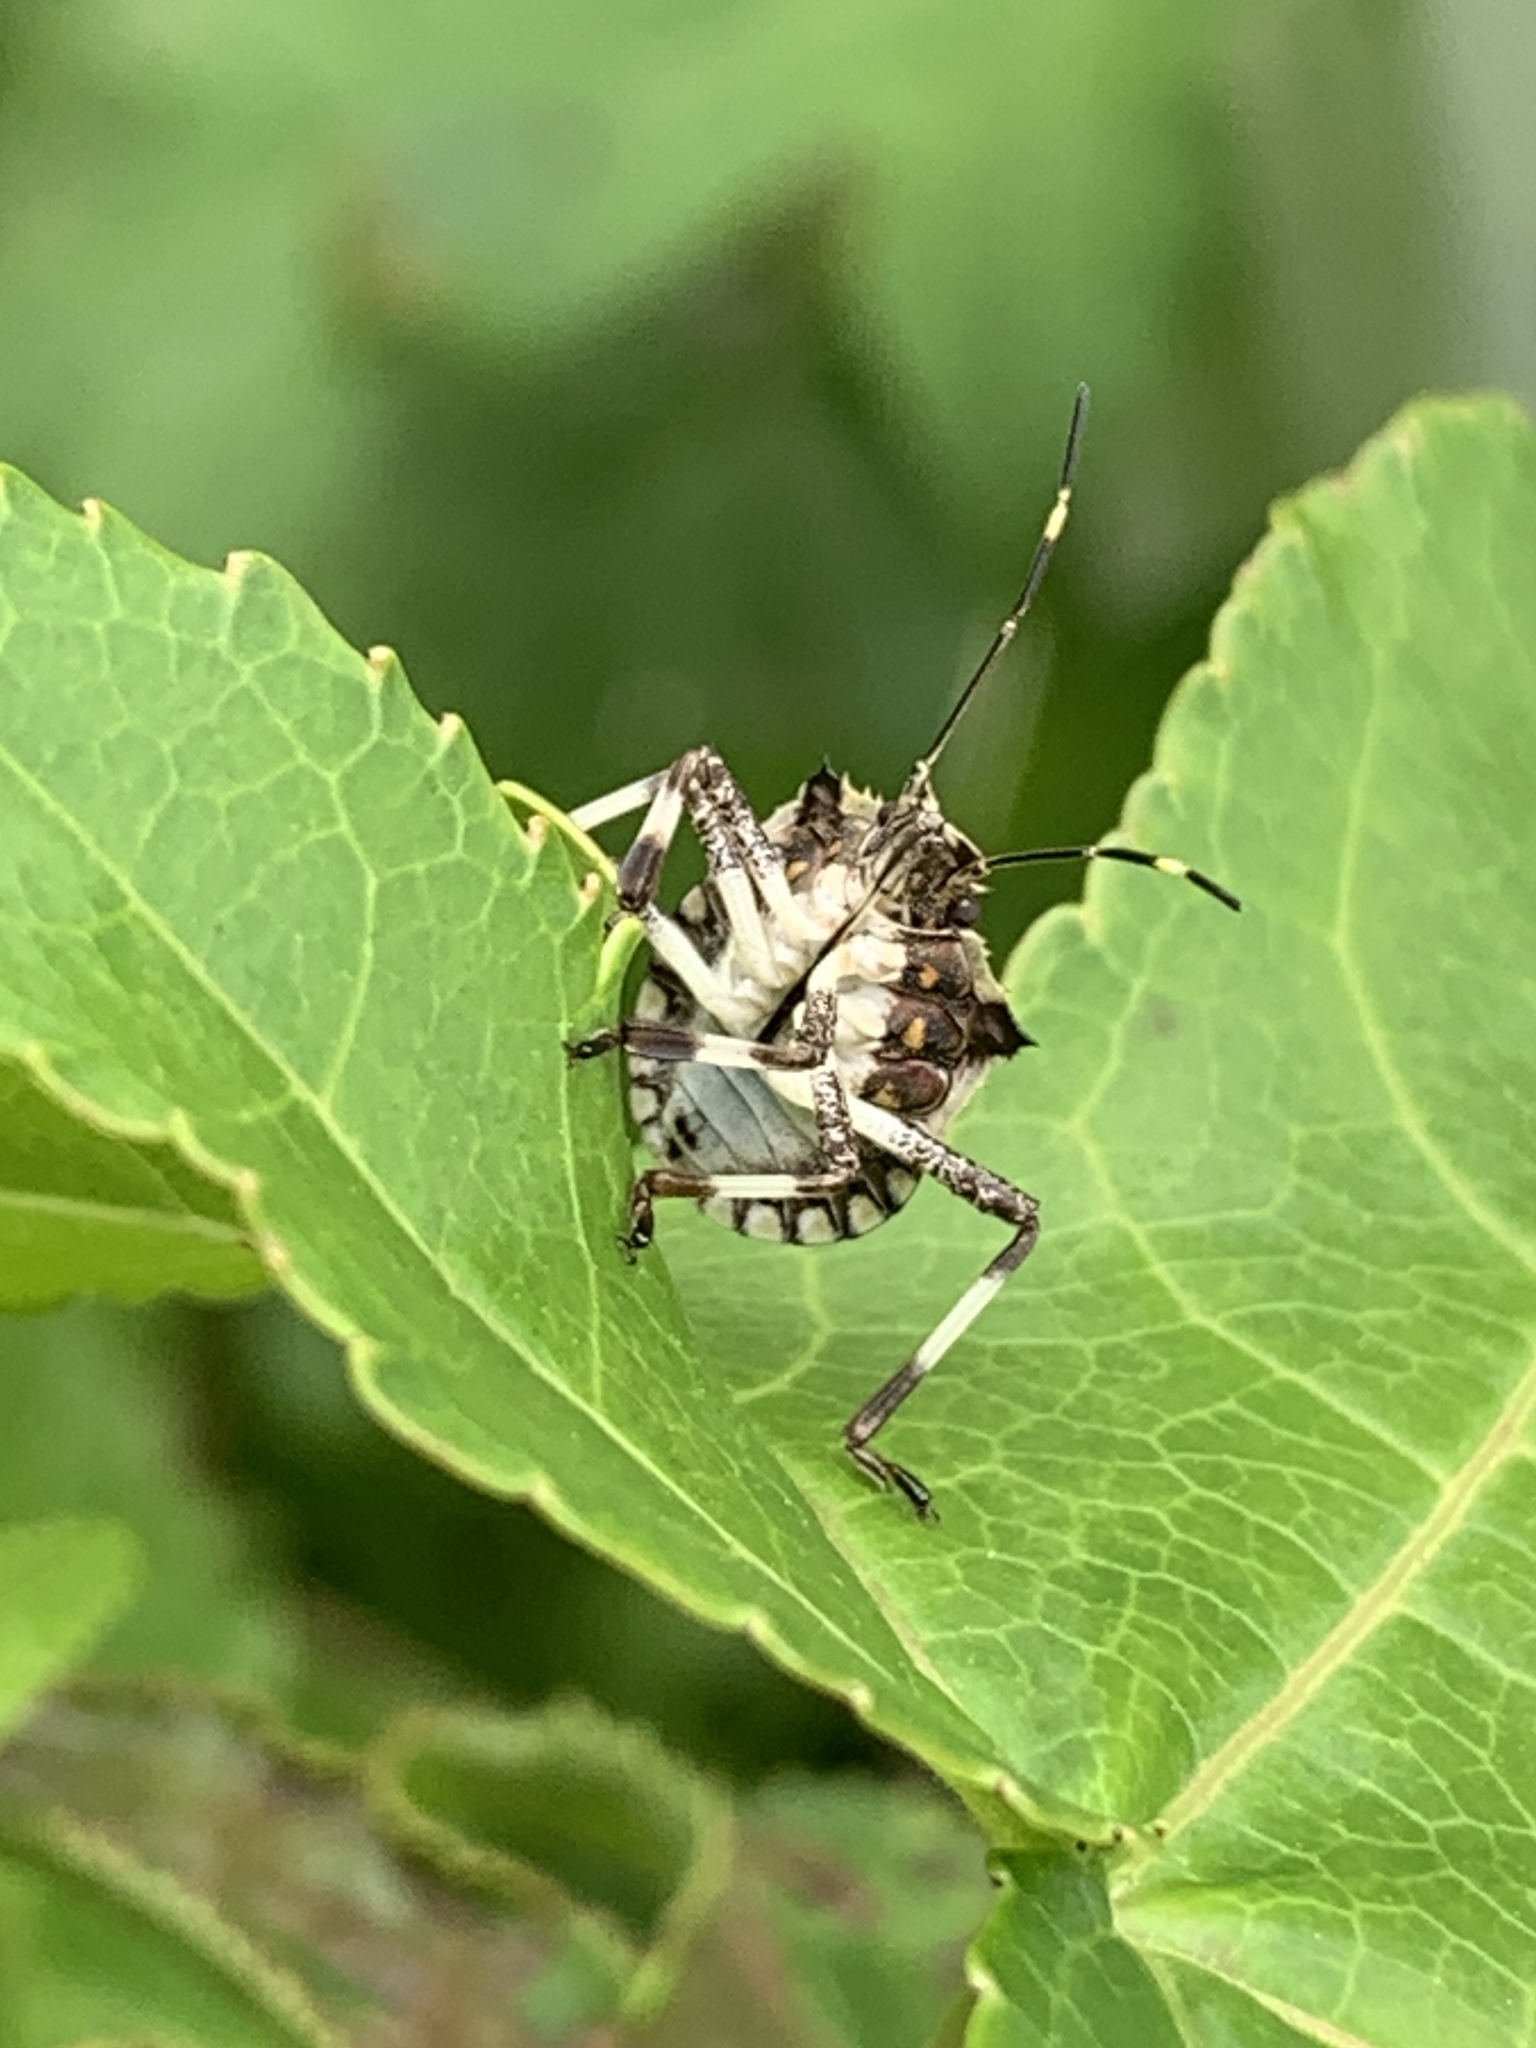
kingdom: Animalia
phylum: Arthropoda
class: Insecta
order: Hemiptera
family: Pentatomidae
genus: Halyomorpha
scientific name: Halyomorpha halys
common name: Brown marmorated stink bug
